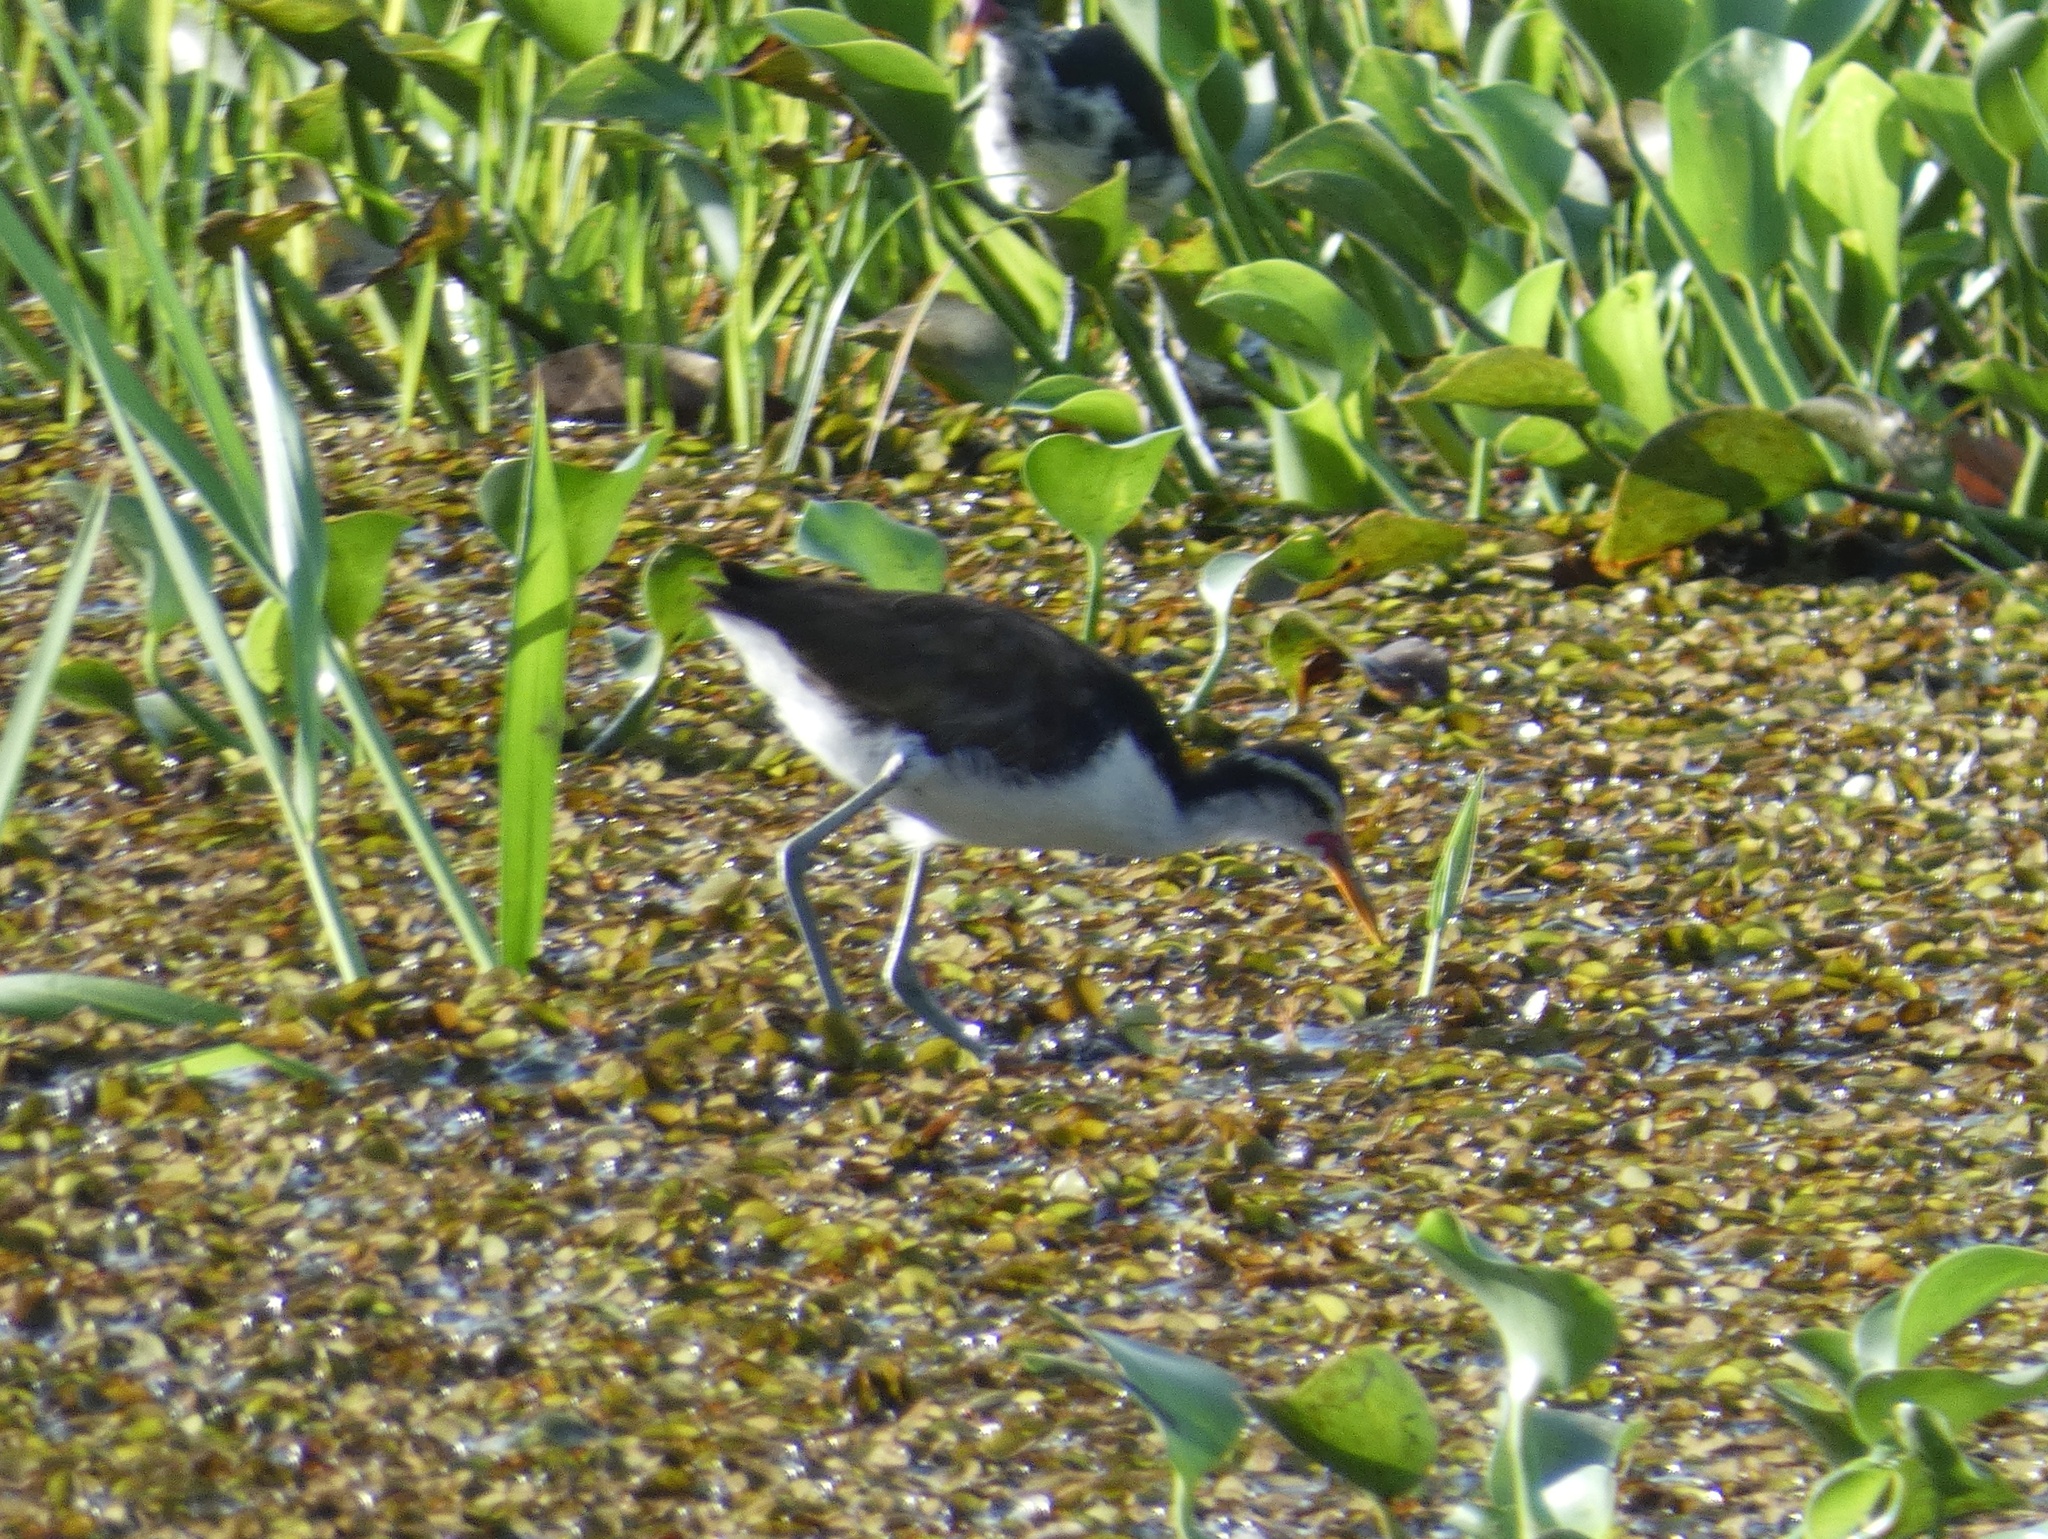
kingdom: Animalia
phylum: Chordata
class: Aves
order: Charadriiformes
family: Jacanidae
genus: Jacana
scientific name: Jacana jacana
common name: Wattled jacana
